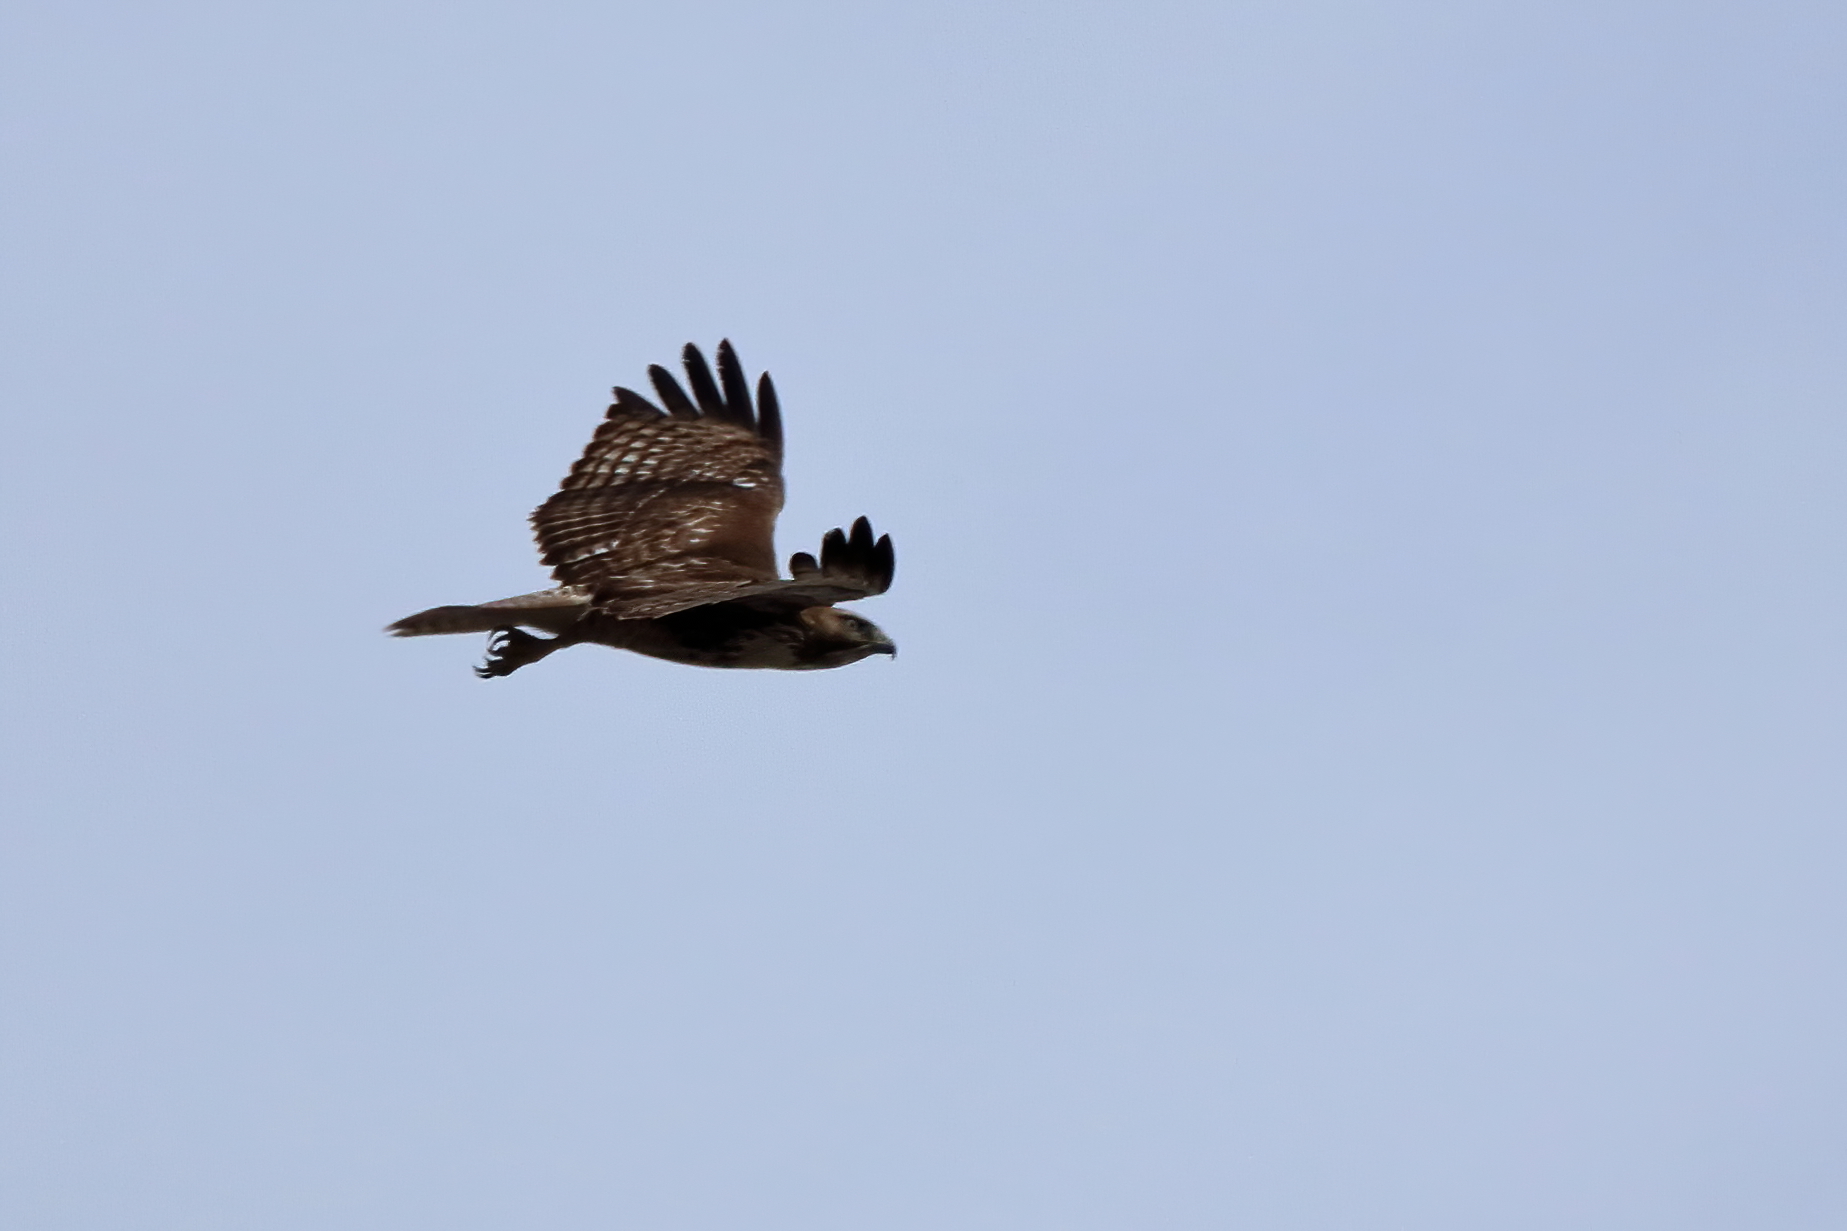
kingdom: Animalia
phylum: Chordata
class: Aves
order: Accipitriformes
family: Accipitridae
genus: Buteo
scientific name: Buteo jamaicensis
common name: Red-tailed hawk
